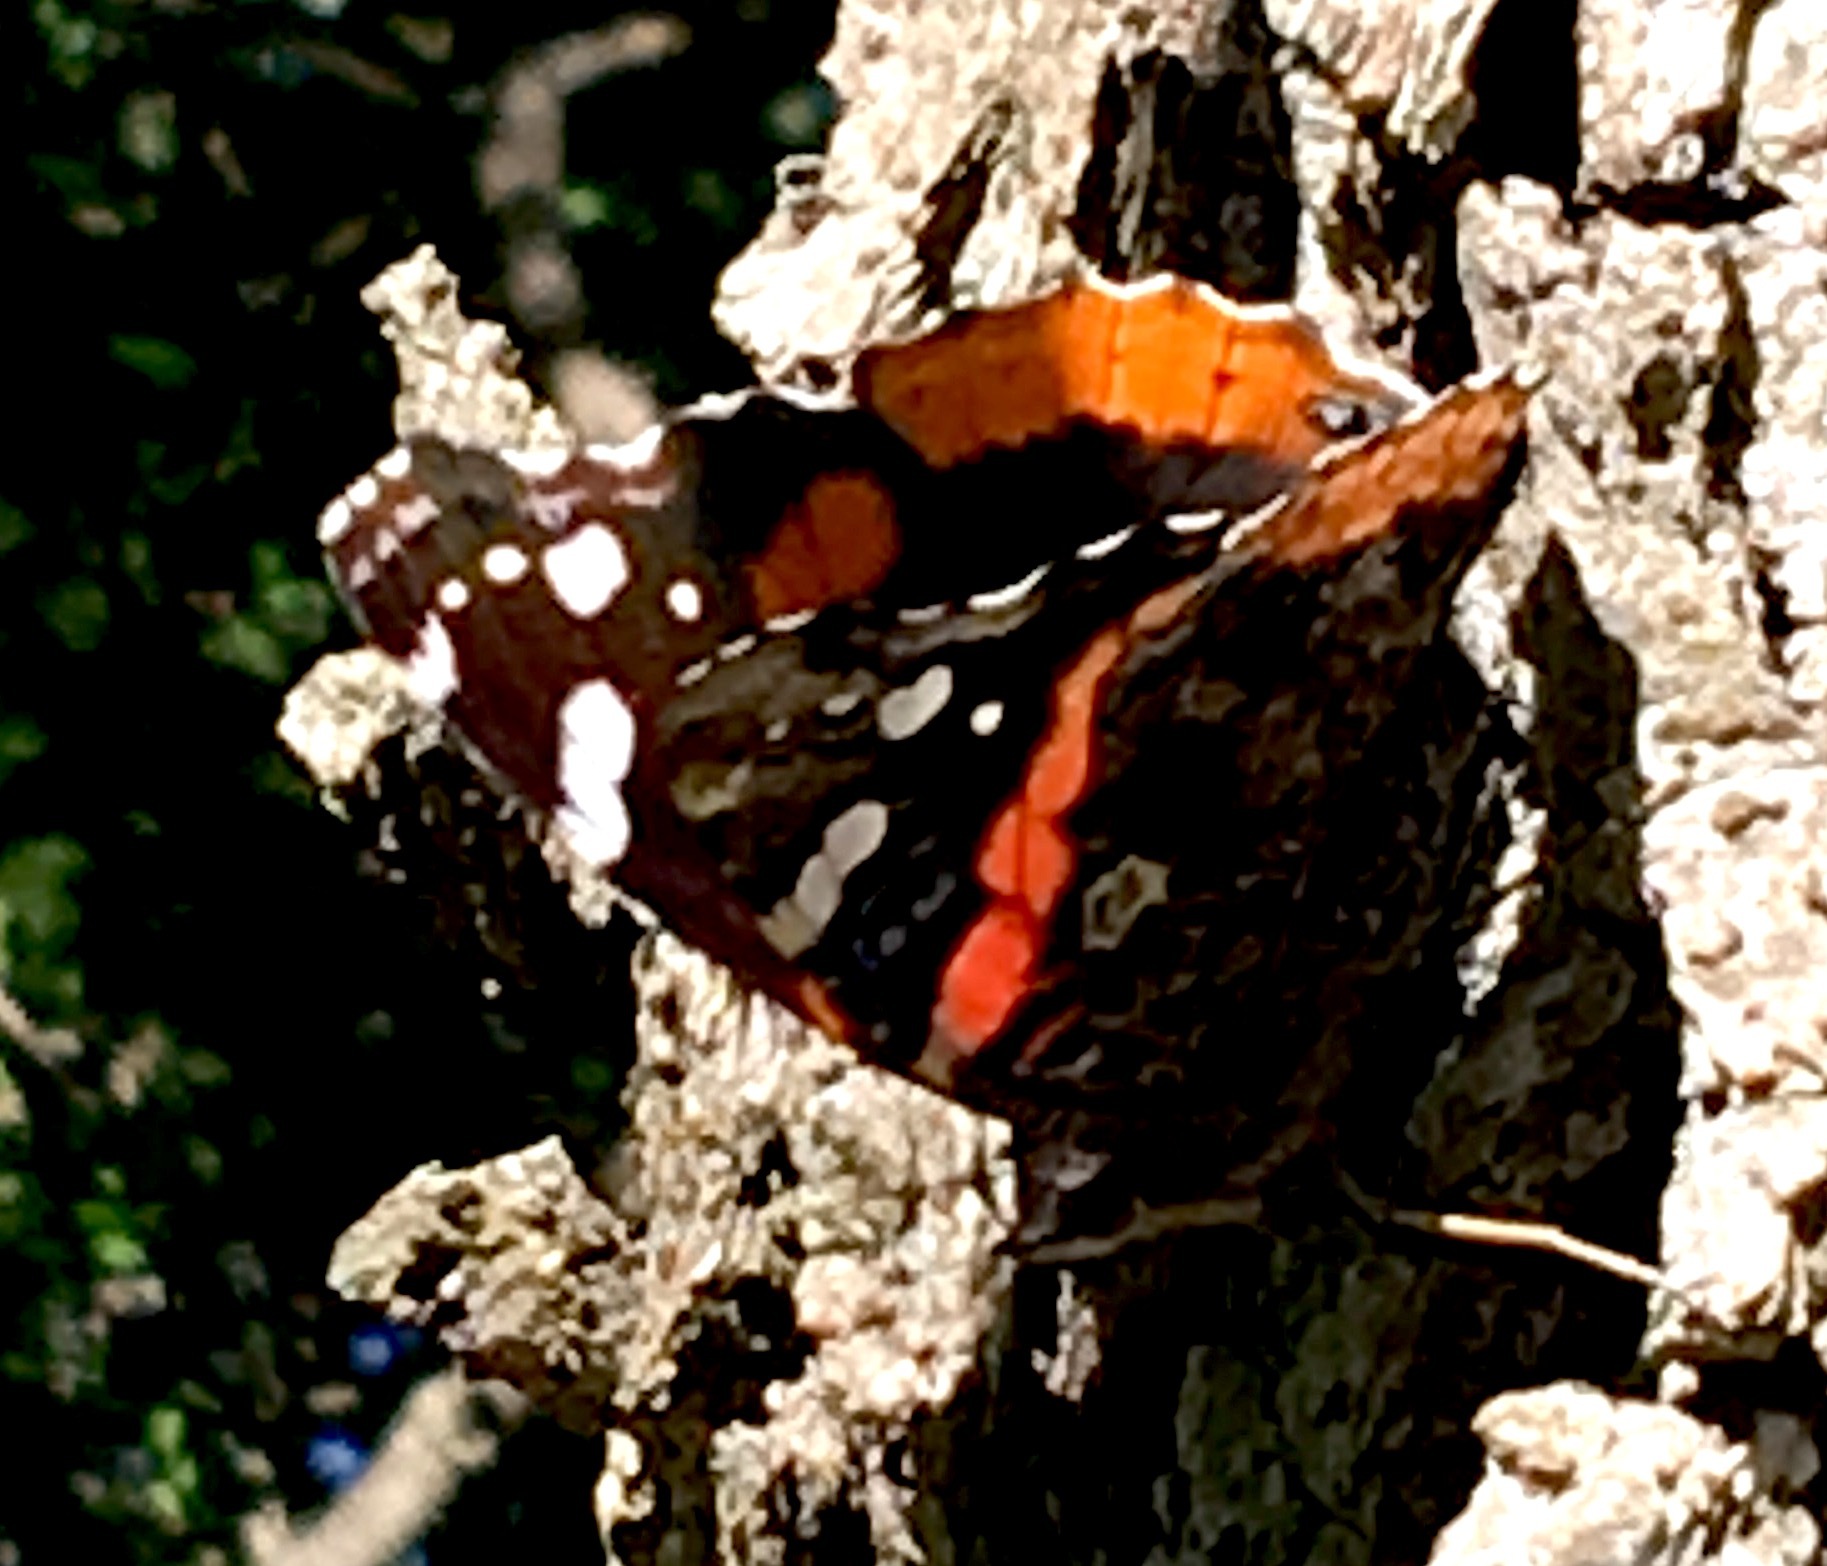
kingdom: Animalia
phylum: Arthropoda
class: Insecta
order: Lepidoptera
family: Nymphalidae
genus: Vanessa
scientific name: Vanessa atalanta
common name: Red admiral
